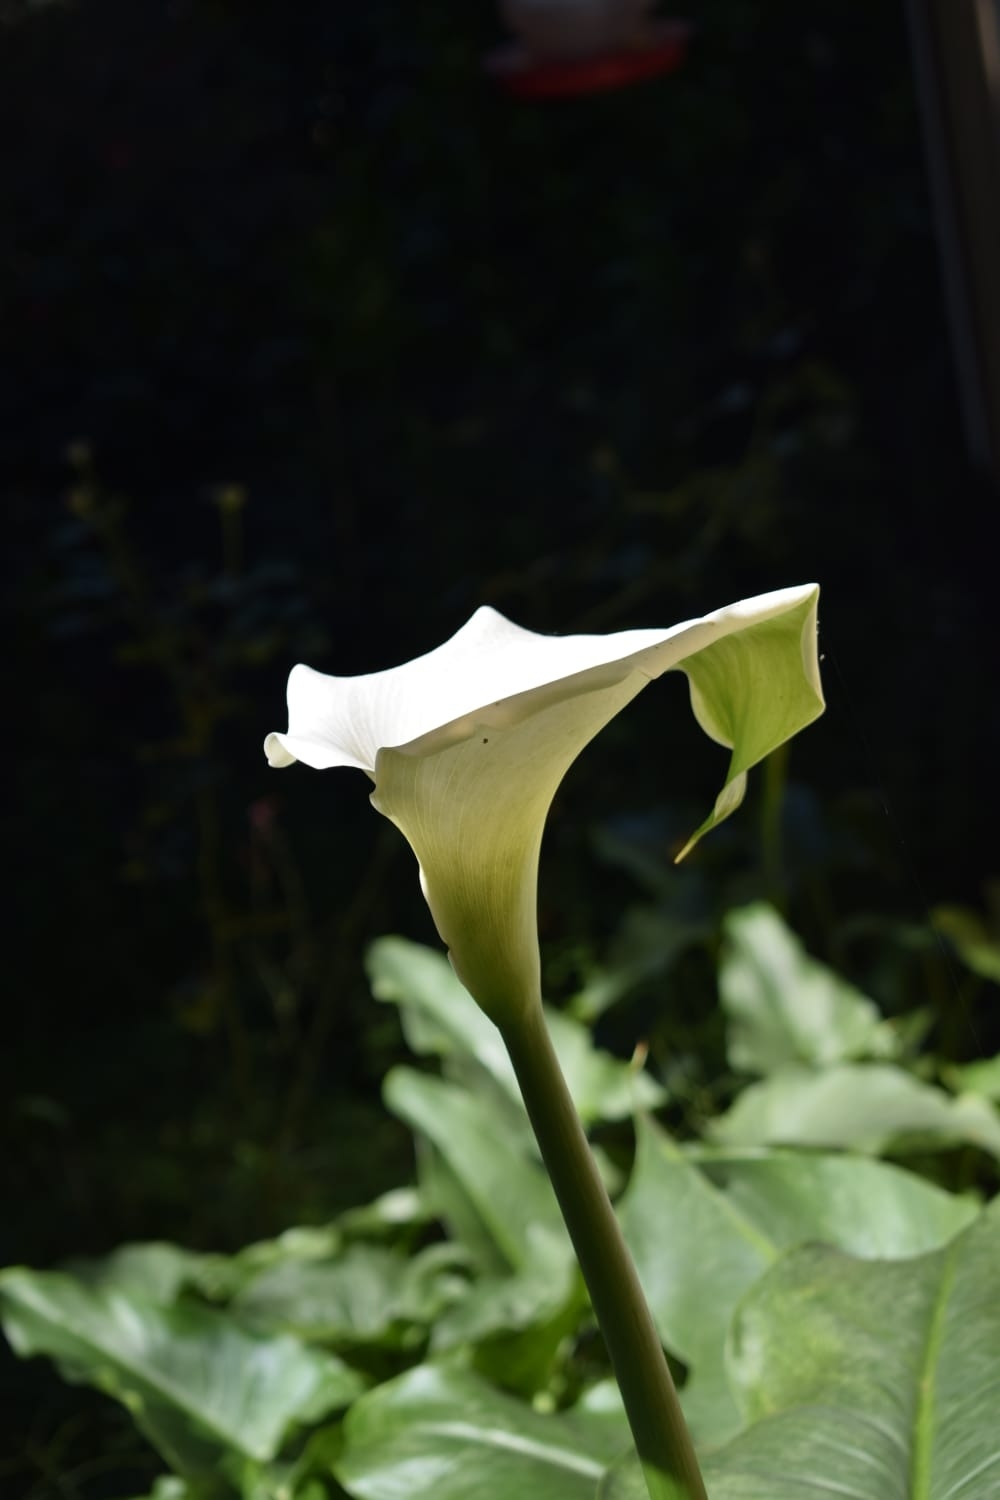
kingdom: Plantae
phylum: Tracheophyta
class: Liliopsida
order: Alismatales
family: Araceae
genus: Zantedeschia
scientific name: Zantedeschia aethiopica
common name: Altar-lily
